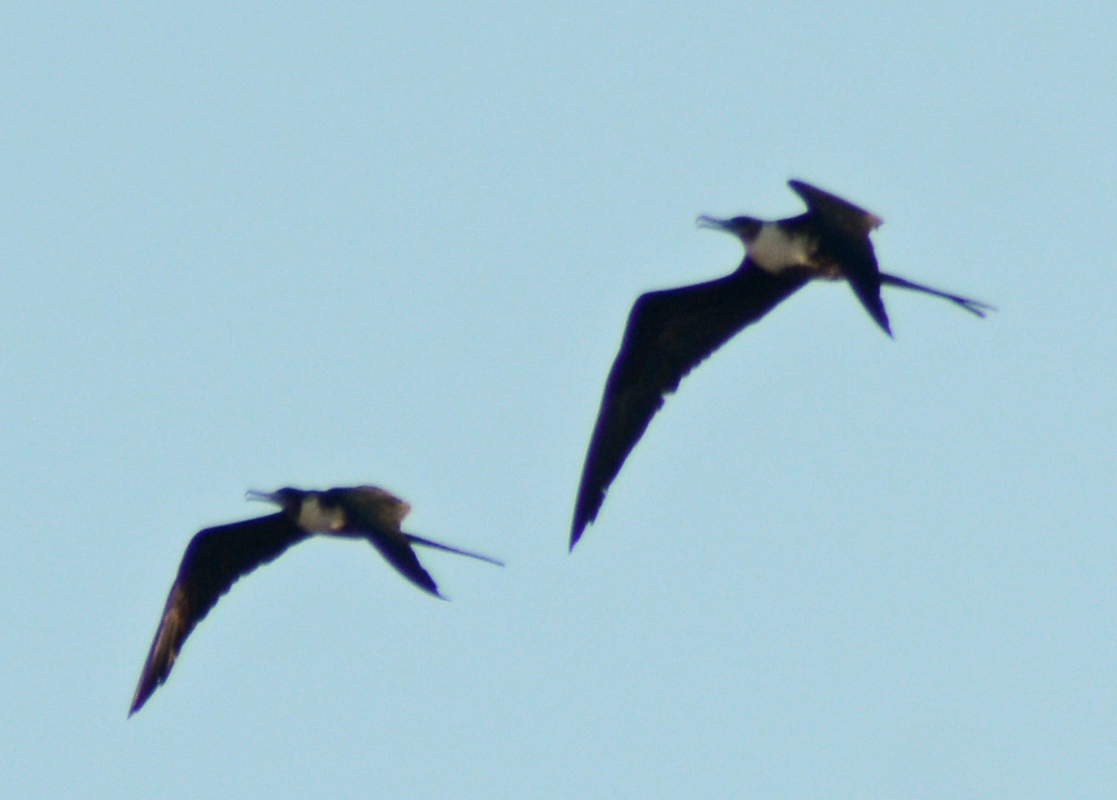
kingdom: Animalia
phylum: Chordata
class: Aves
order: Suliformes
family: Fregatidae
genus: Fregata
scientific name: Fregata magnificens
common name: Magnificent frigatebird
